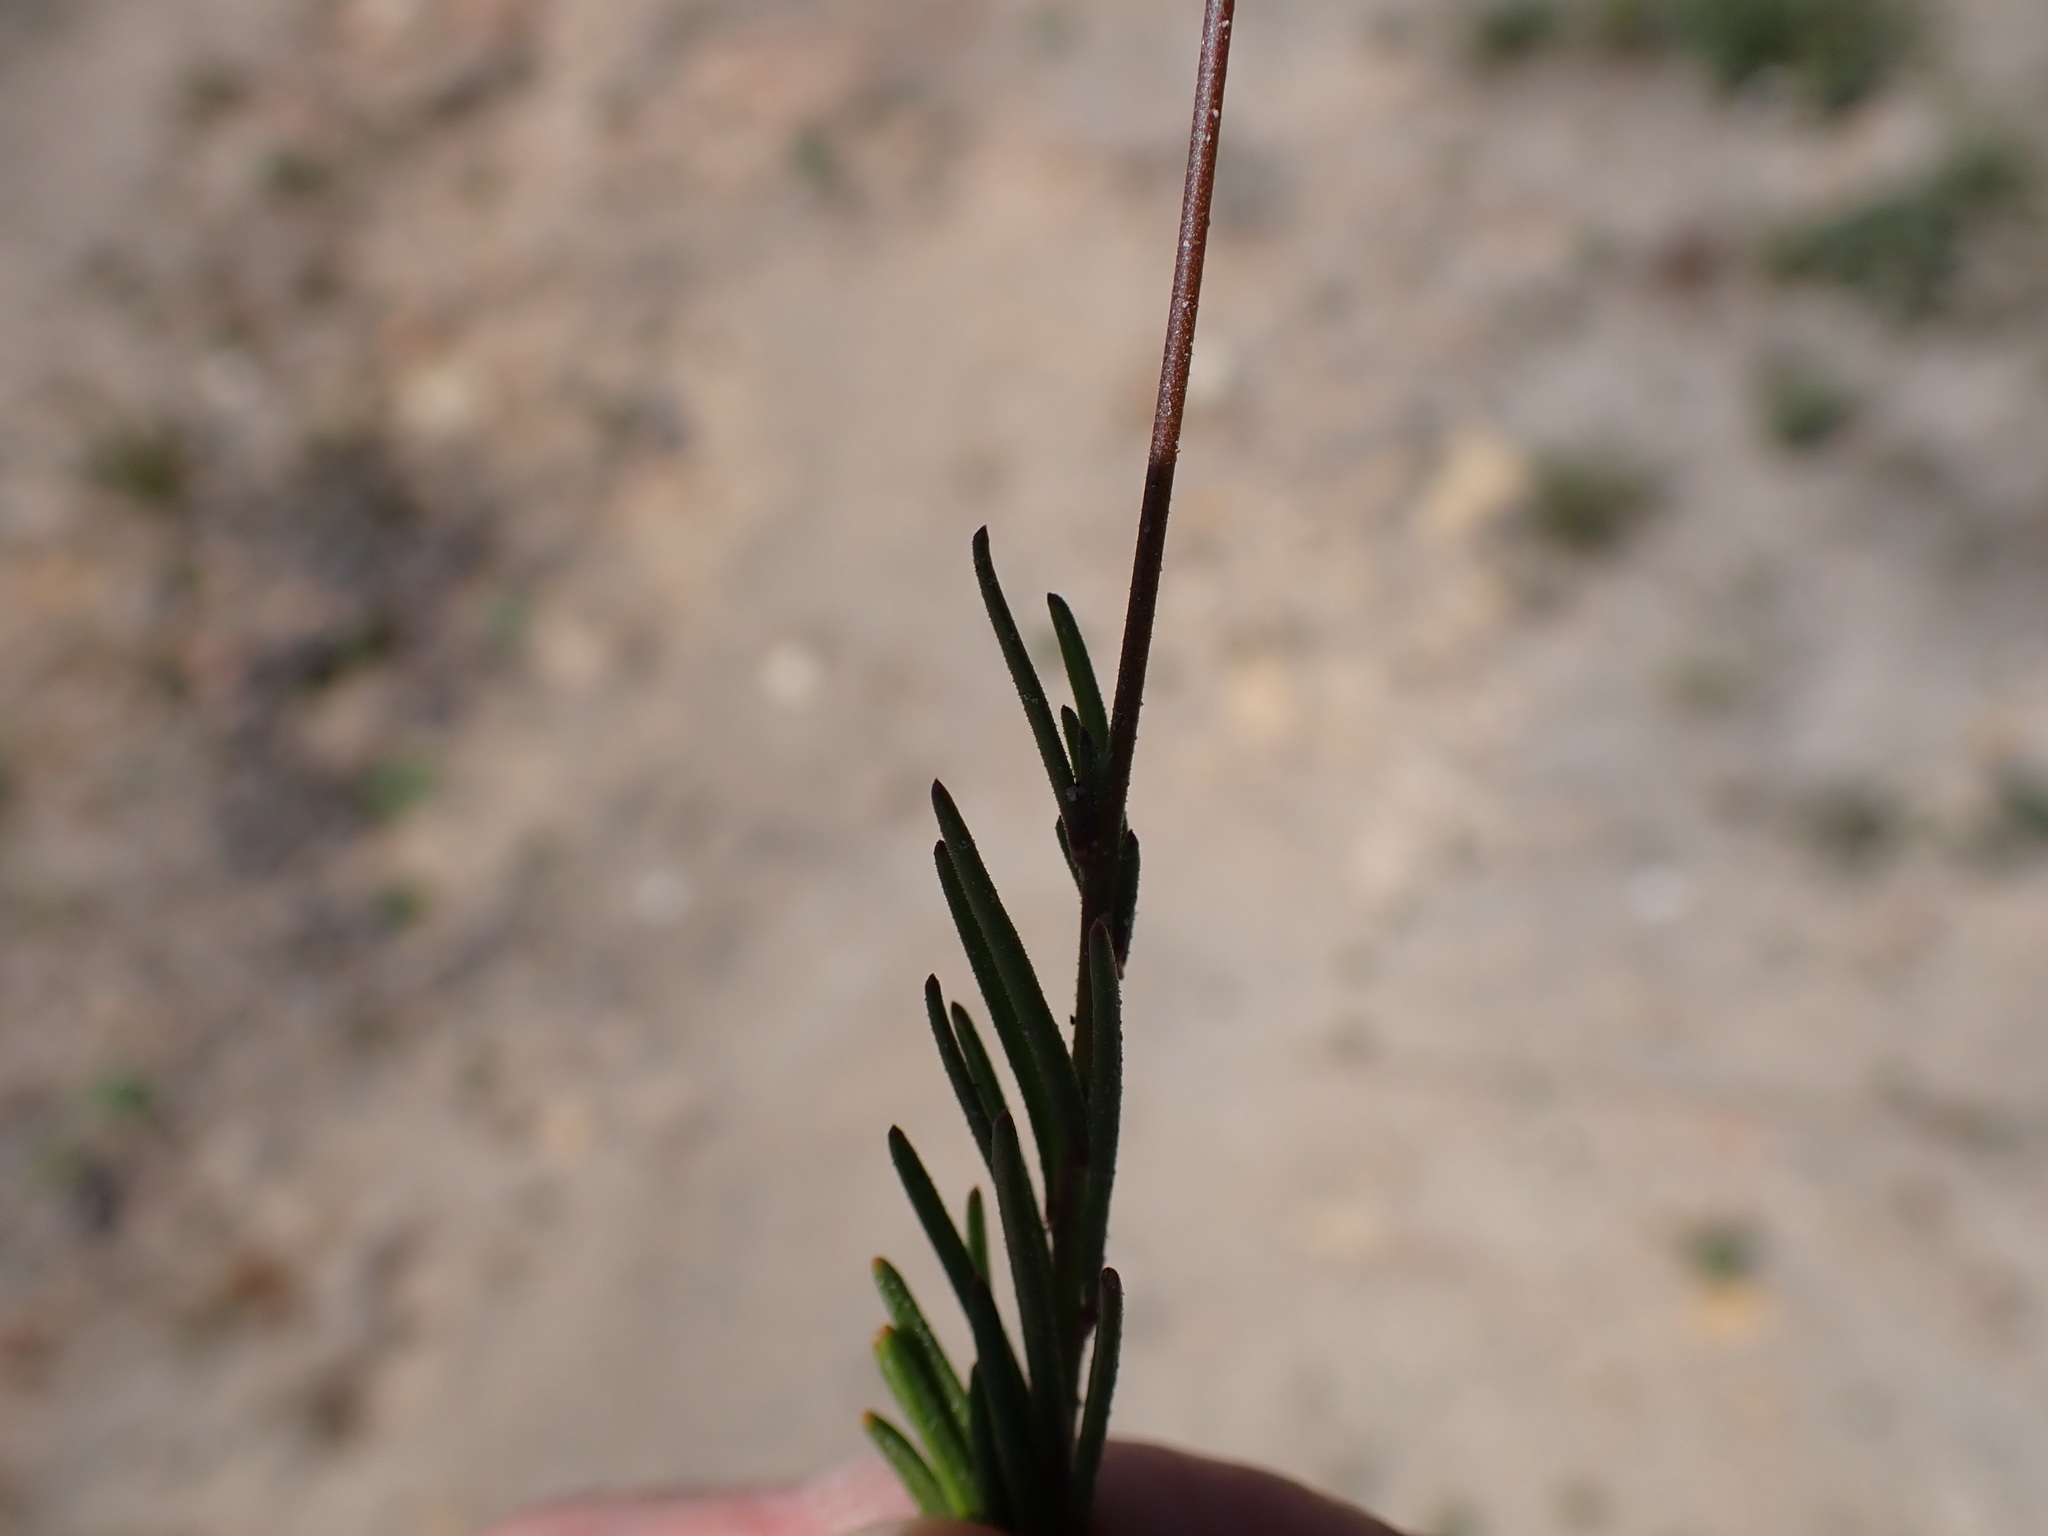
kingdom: Plantae
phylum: Tracheophyta
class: Magnoliopsida
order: Brassicales
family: Brassicaceae
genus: Heliophila
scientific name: Heliophila subulata
